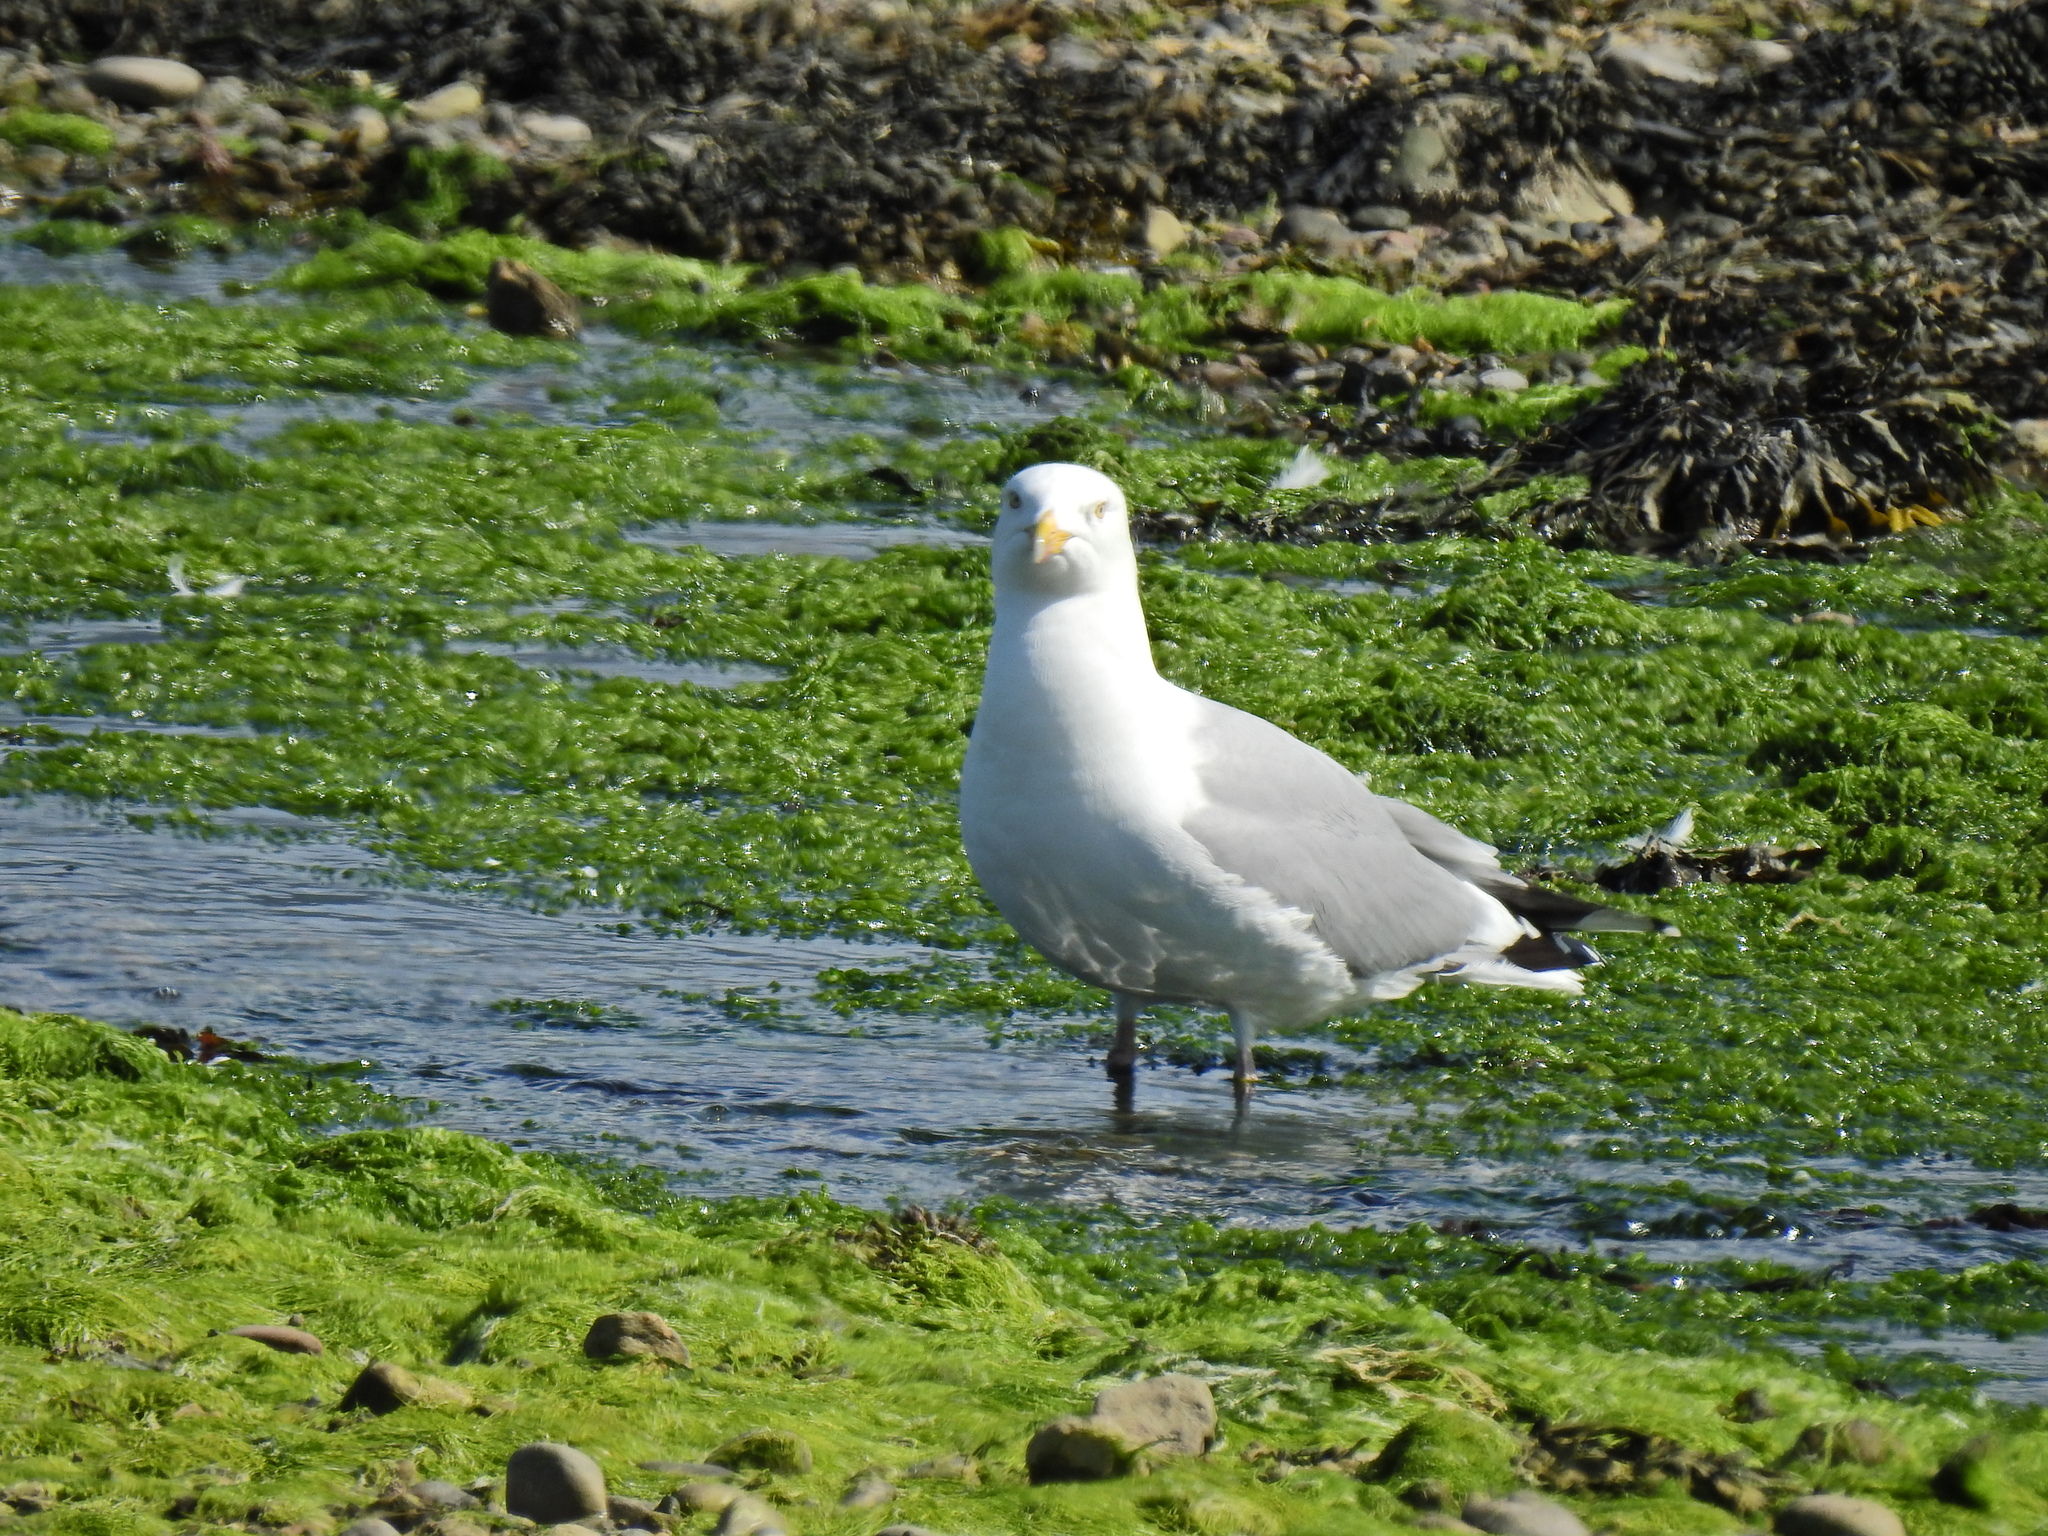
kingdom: Animalia
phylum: Chordata
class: Aves
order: Charadriiformes
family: Laridae
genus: Larus
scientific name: Larus argentatus
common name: Herring gull
